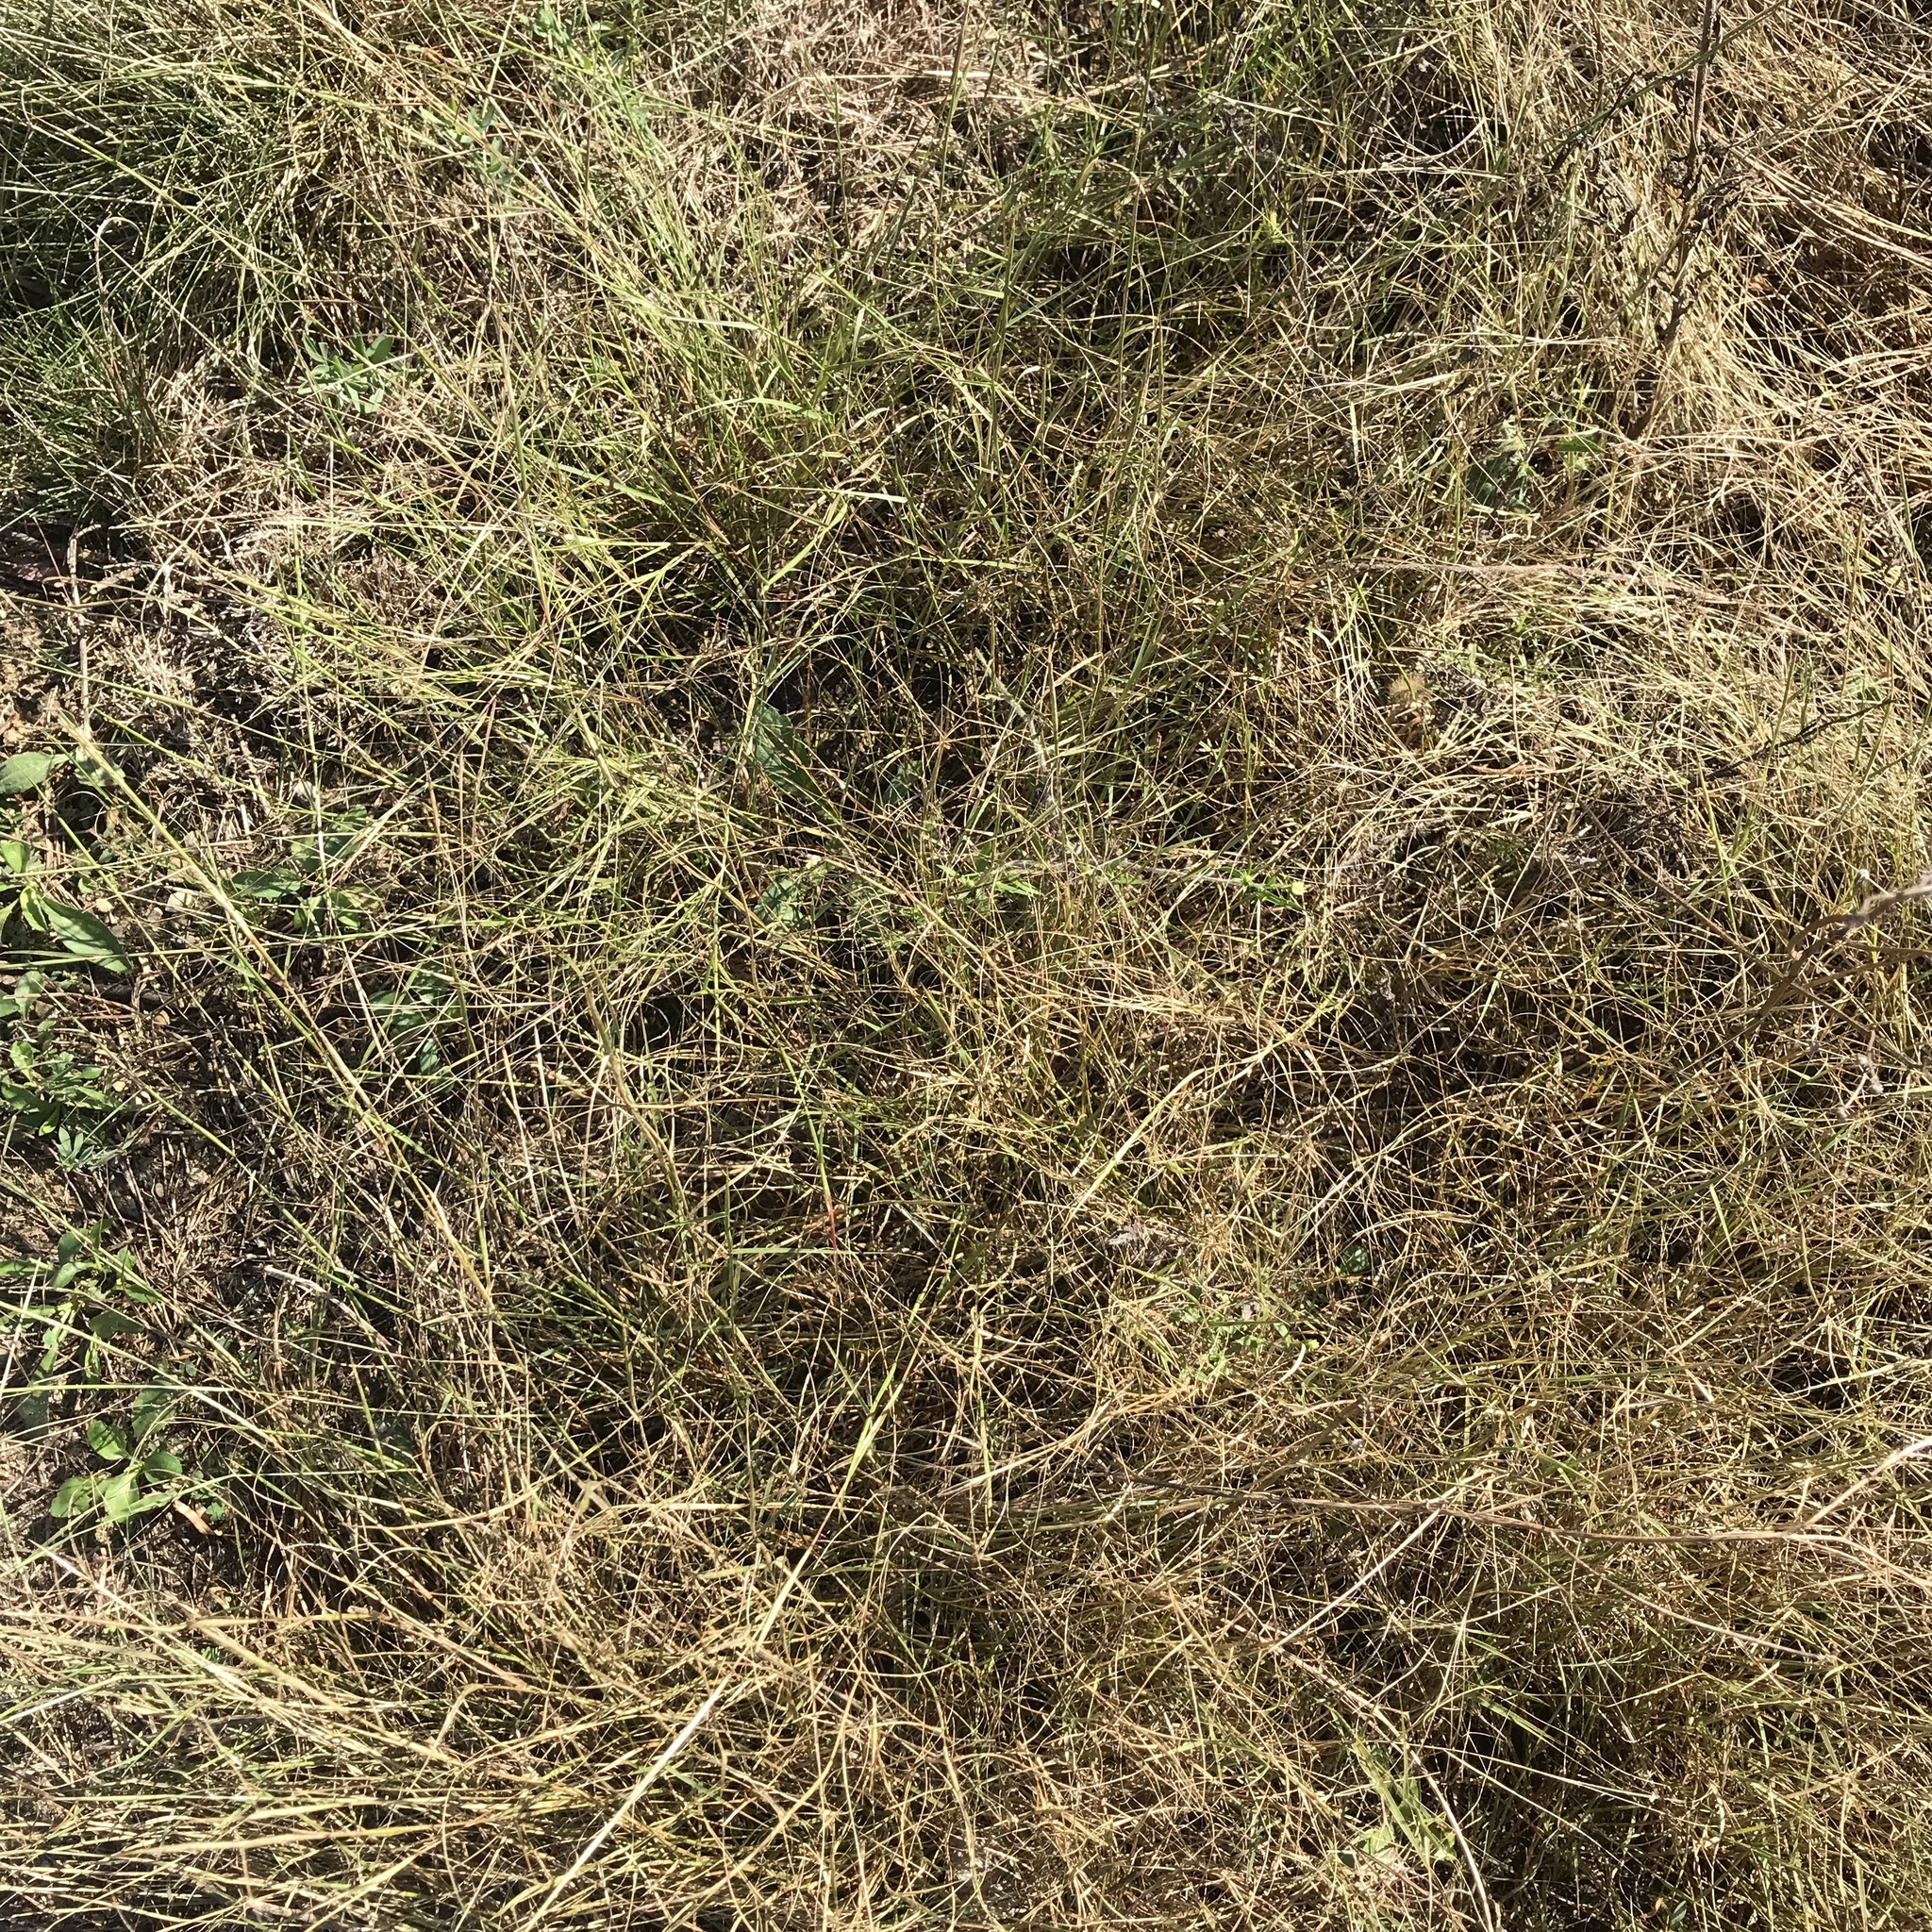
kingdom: Plantae
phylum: Tracheophyta
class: Liliopsida
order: Poales
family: Poaceae
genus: Aristida
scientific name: Aristida oligantha
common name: Few-flowered aristida
